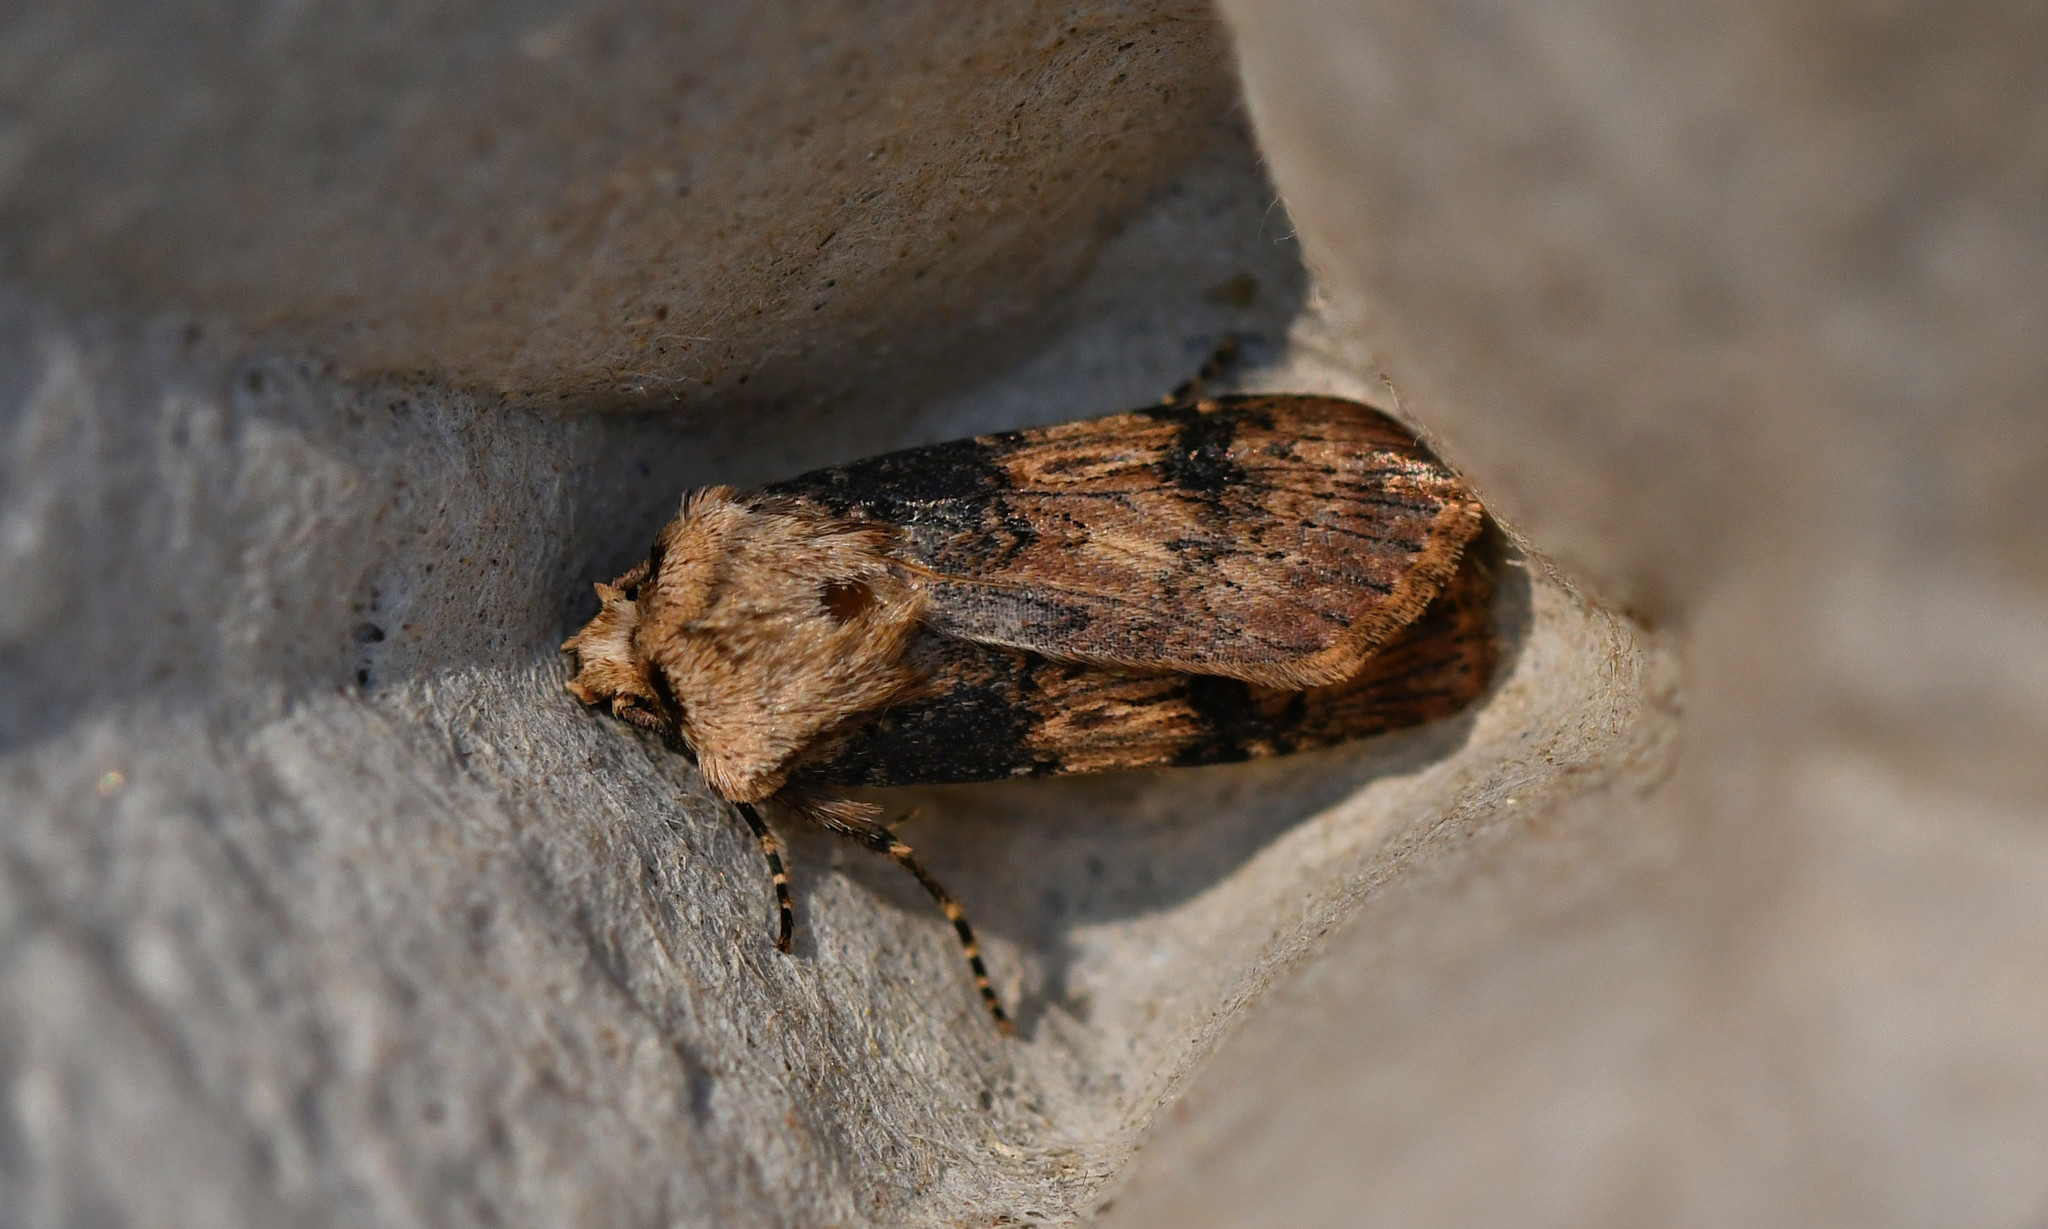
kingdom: Animalia
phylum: Arthropoda
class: Insecta
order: Lepidoptera
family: Noctuidae
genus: Agrotis
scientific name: Agrotis puta
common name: Shuttle-shaped dart
